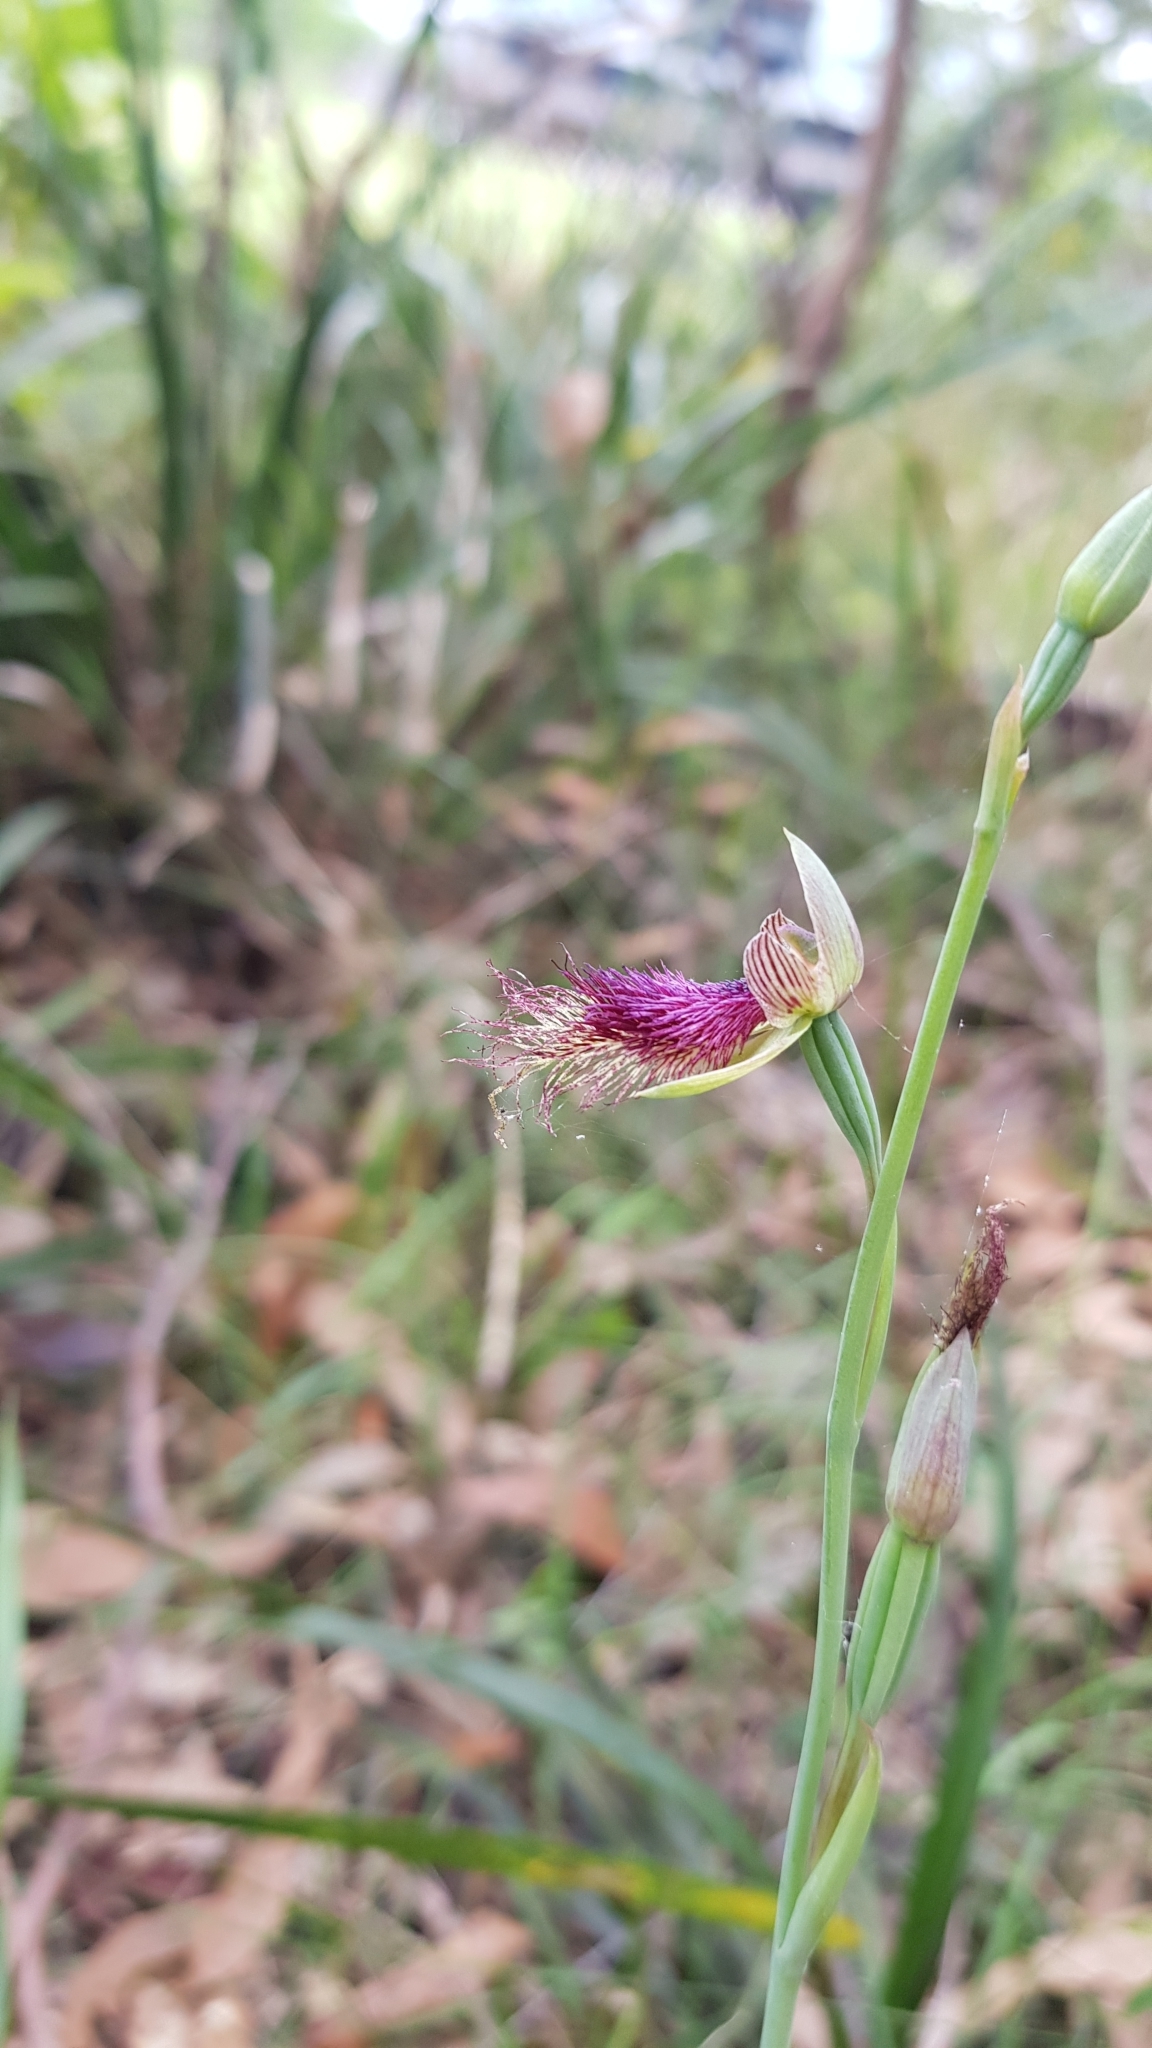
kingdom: Plantae
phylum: Tracheophyta
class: Liliopsida
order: Asparagales
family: Orchidaceae
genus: Calochilus
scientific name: Calochilus robertsonii
